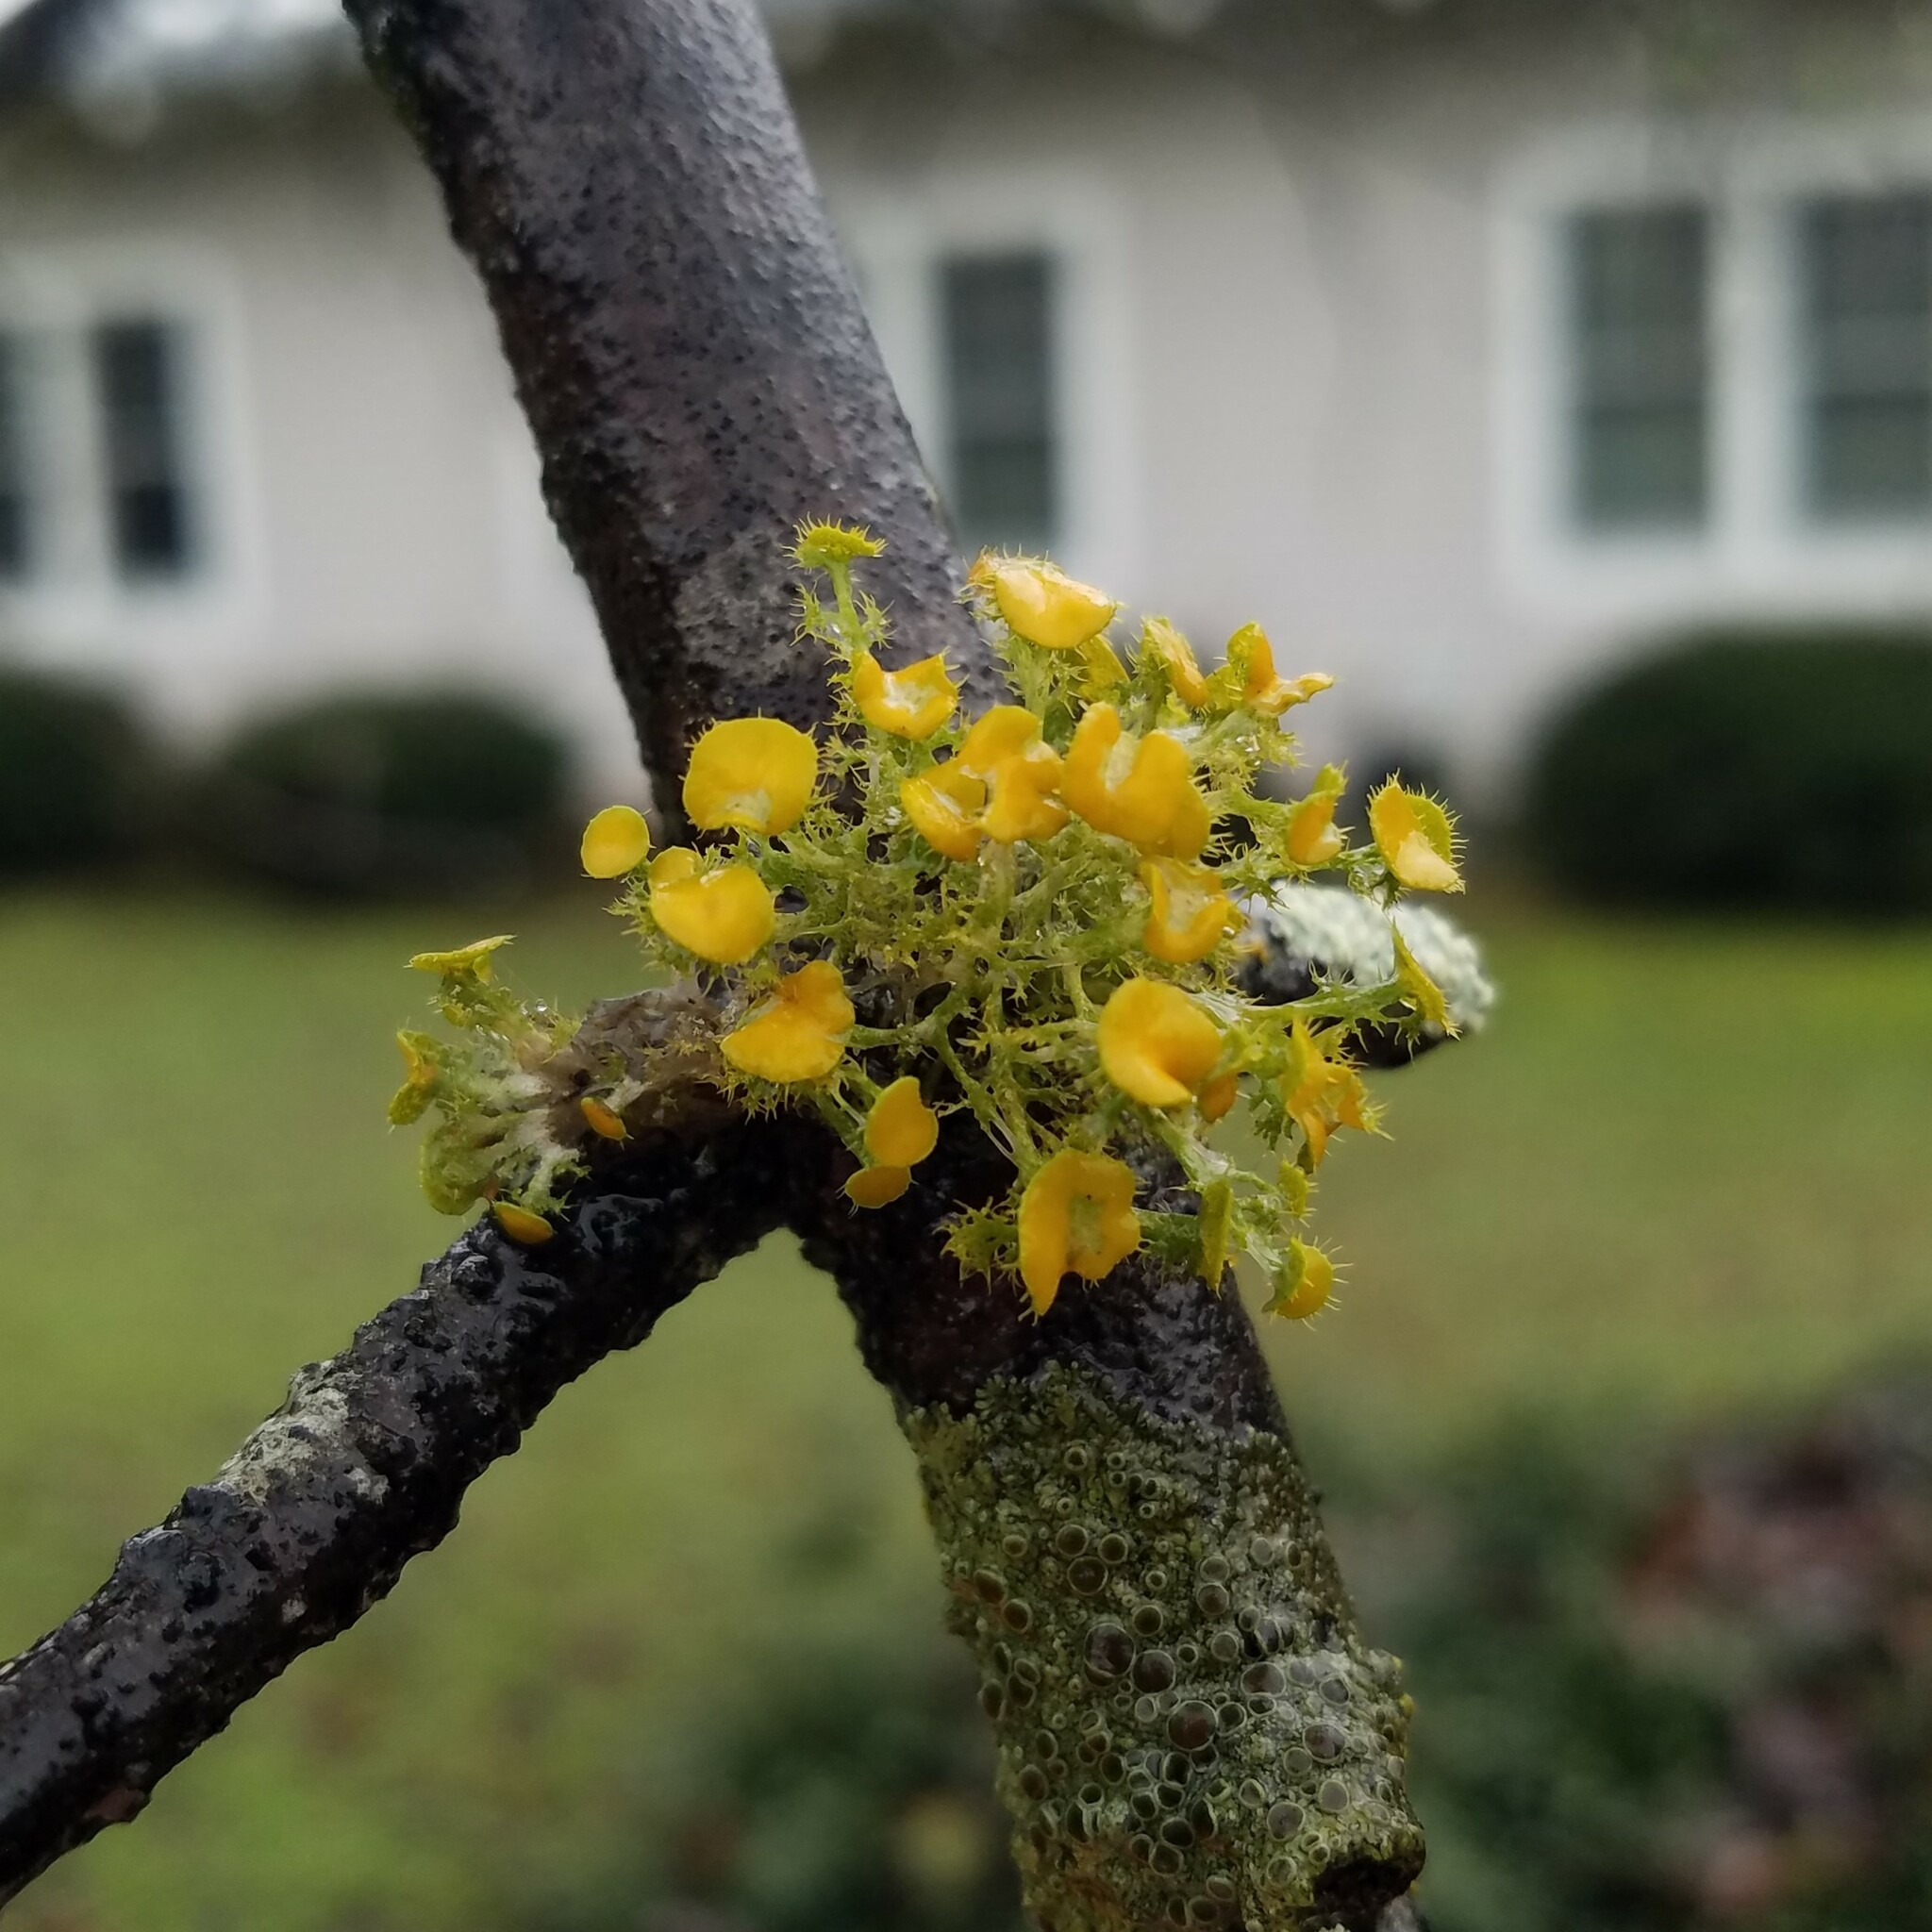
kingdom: Fungi
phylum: Ascomycota
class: Lecanoromycetes
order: Teloschistales
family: Teloschistaceae
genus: Niorma
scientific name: Niorma chrysophthalma
